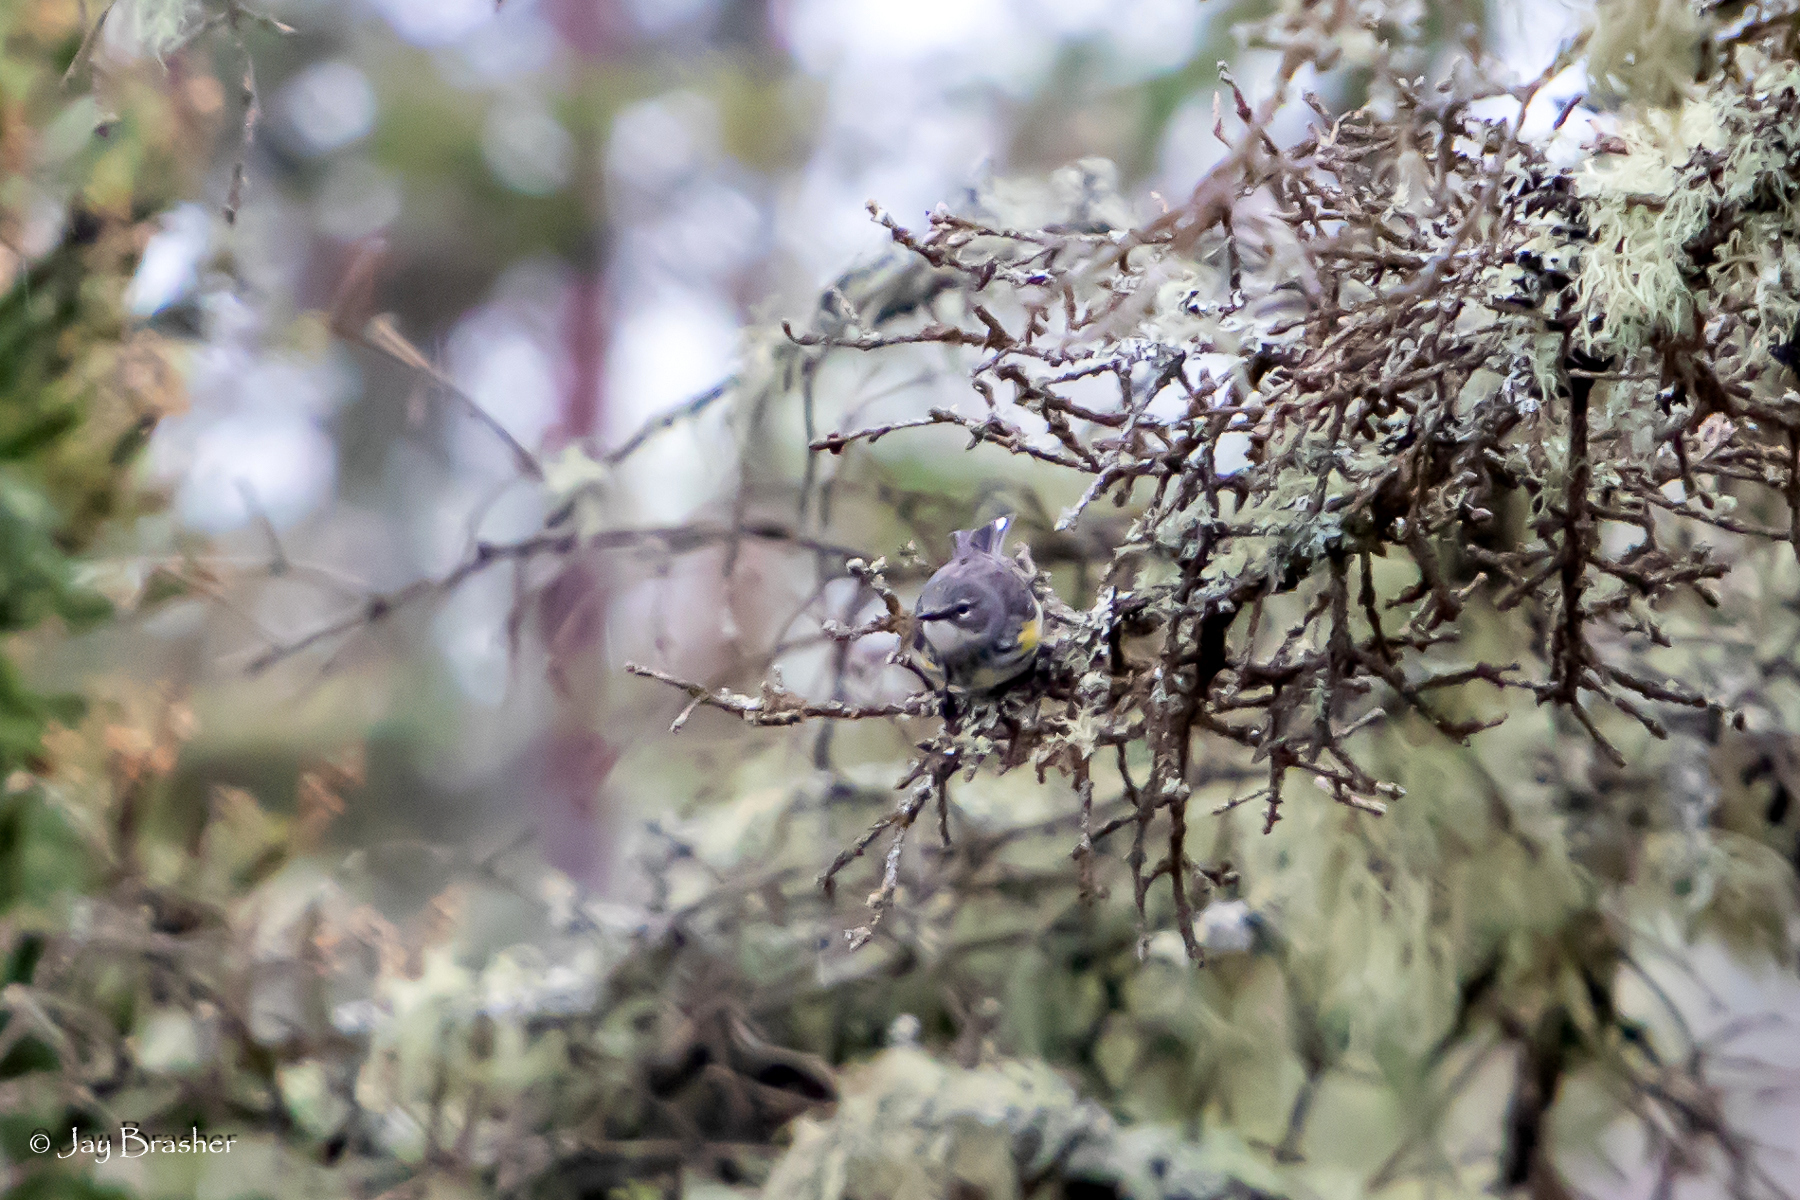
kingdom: Animalia
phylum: Chordata
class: Aves
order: Passeriformes
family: Parulidae
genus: Setophaga
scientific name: Setophaga coronata
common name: Myrtle warbler
